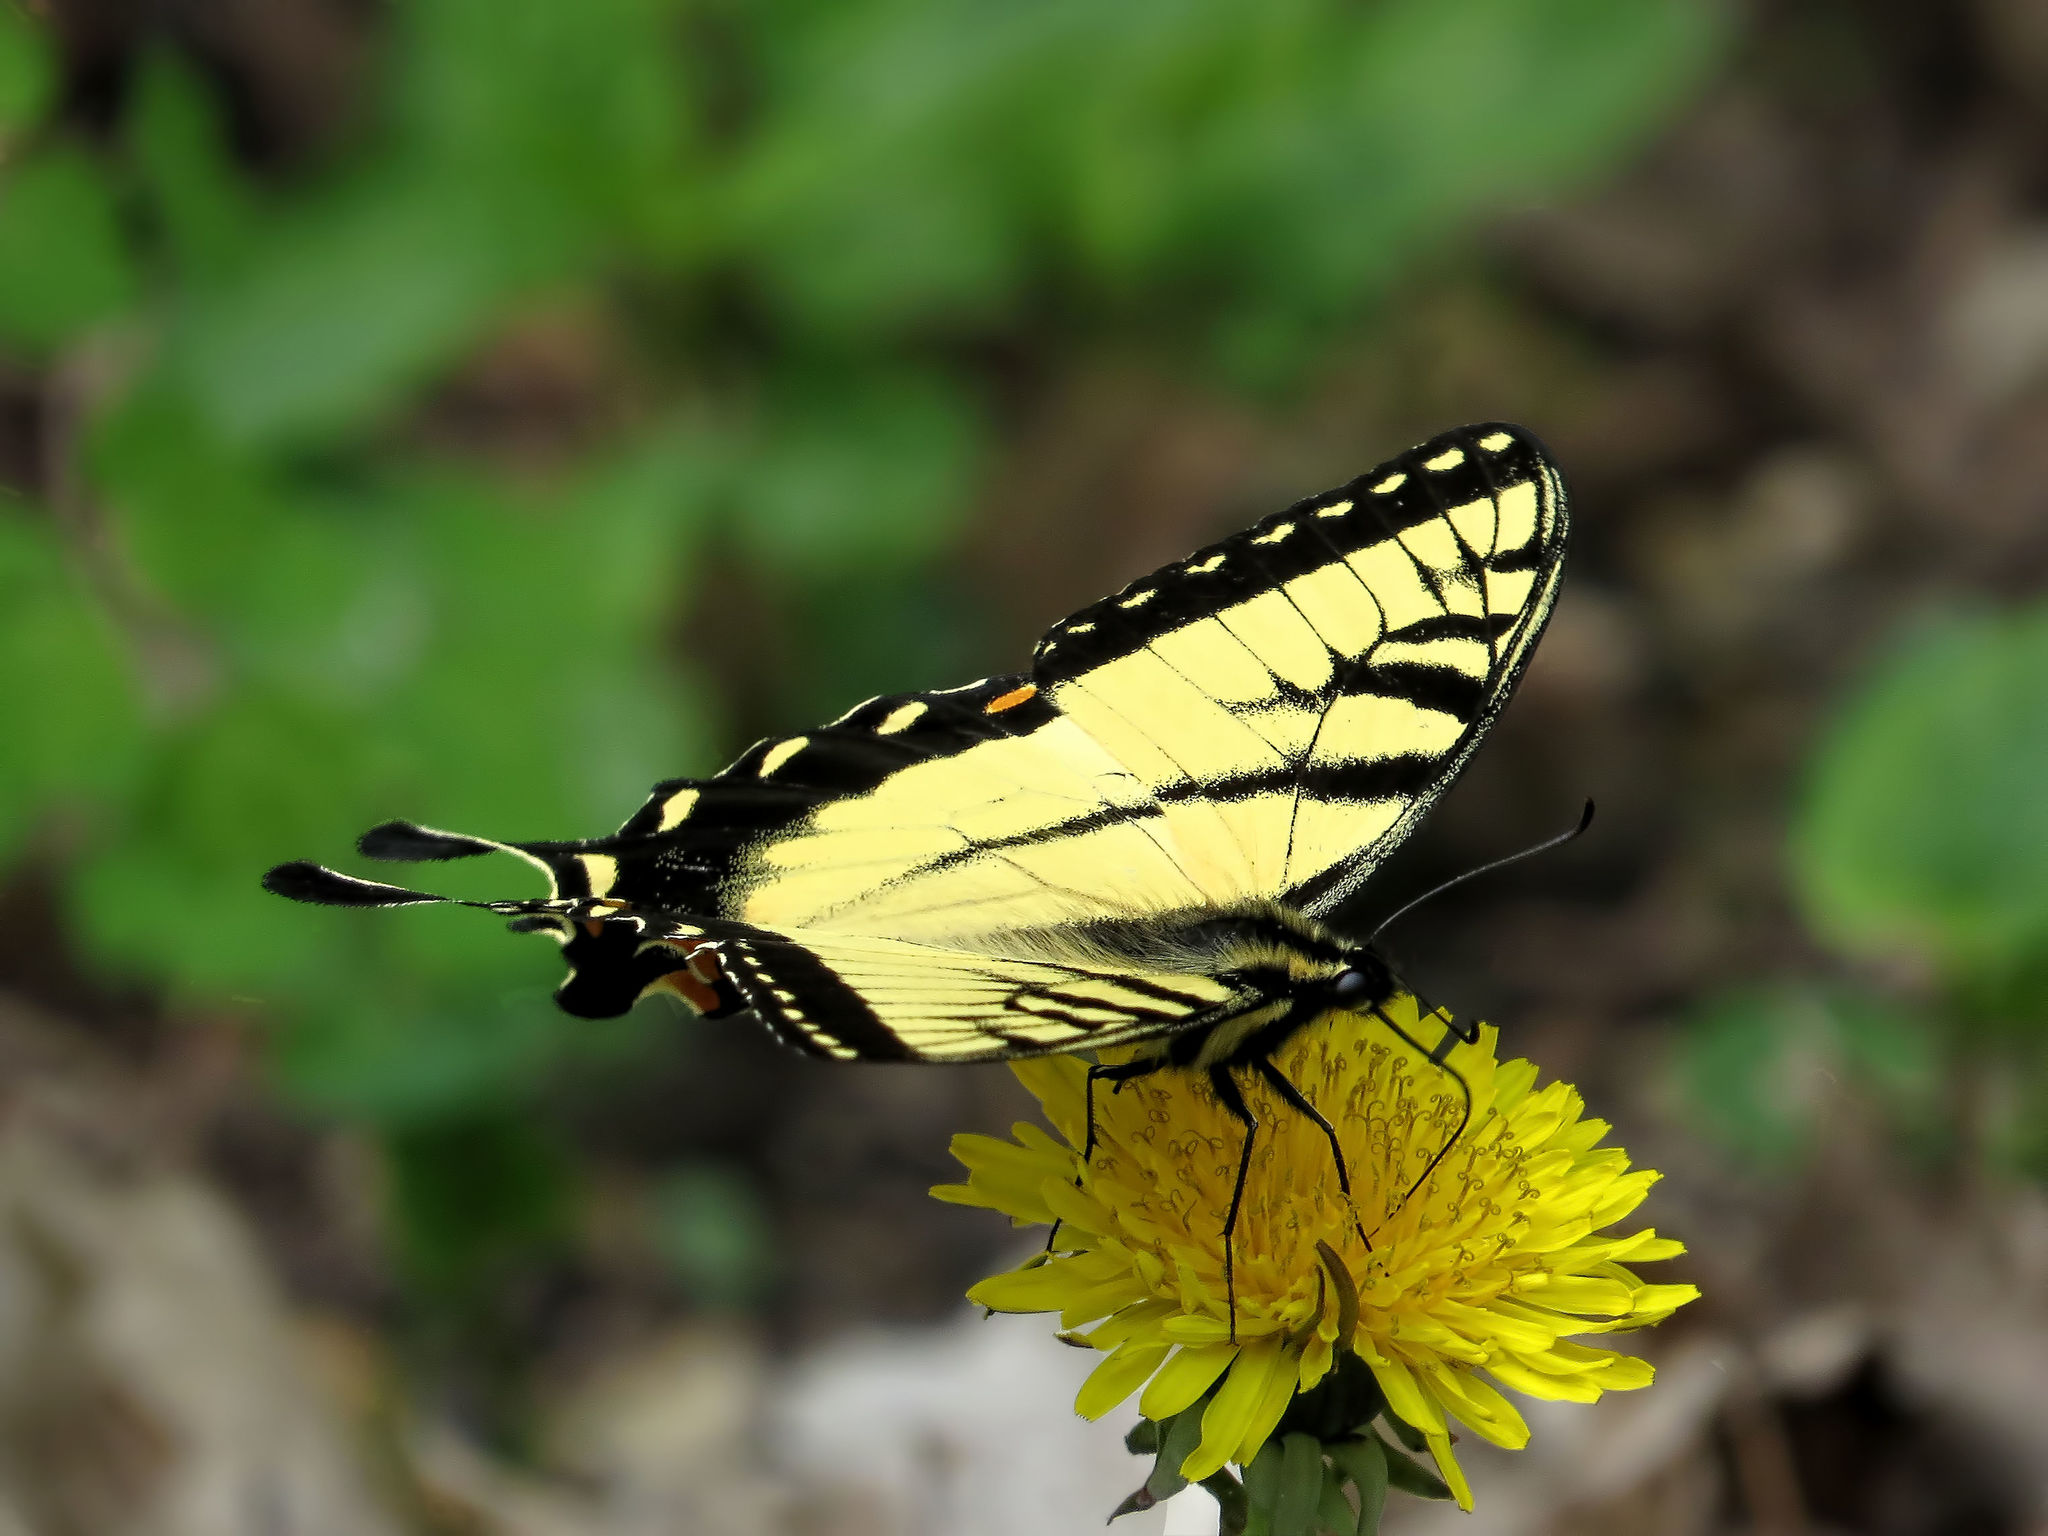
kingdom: Animalia
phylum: Arthropoda
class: Insecta
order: Lepidoptera
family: Papilionidae
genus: Papilio
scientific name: Papilio glaucus
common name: Tiger swallowtail
